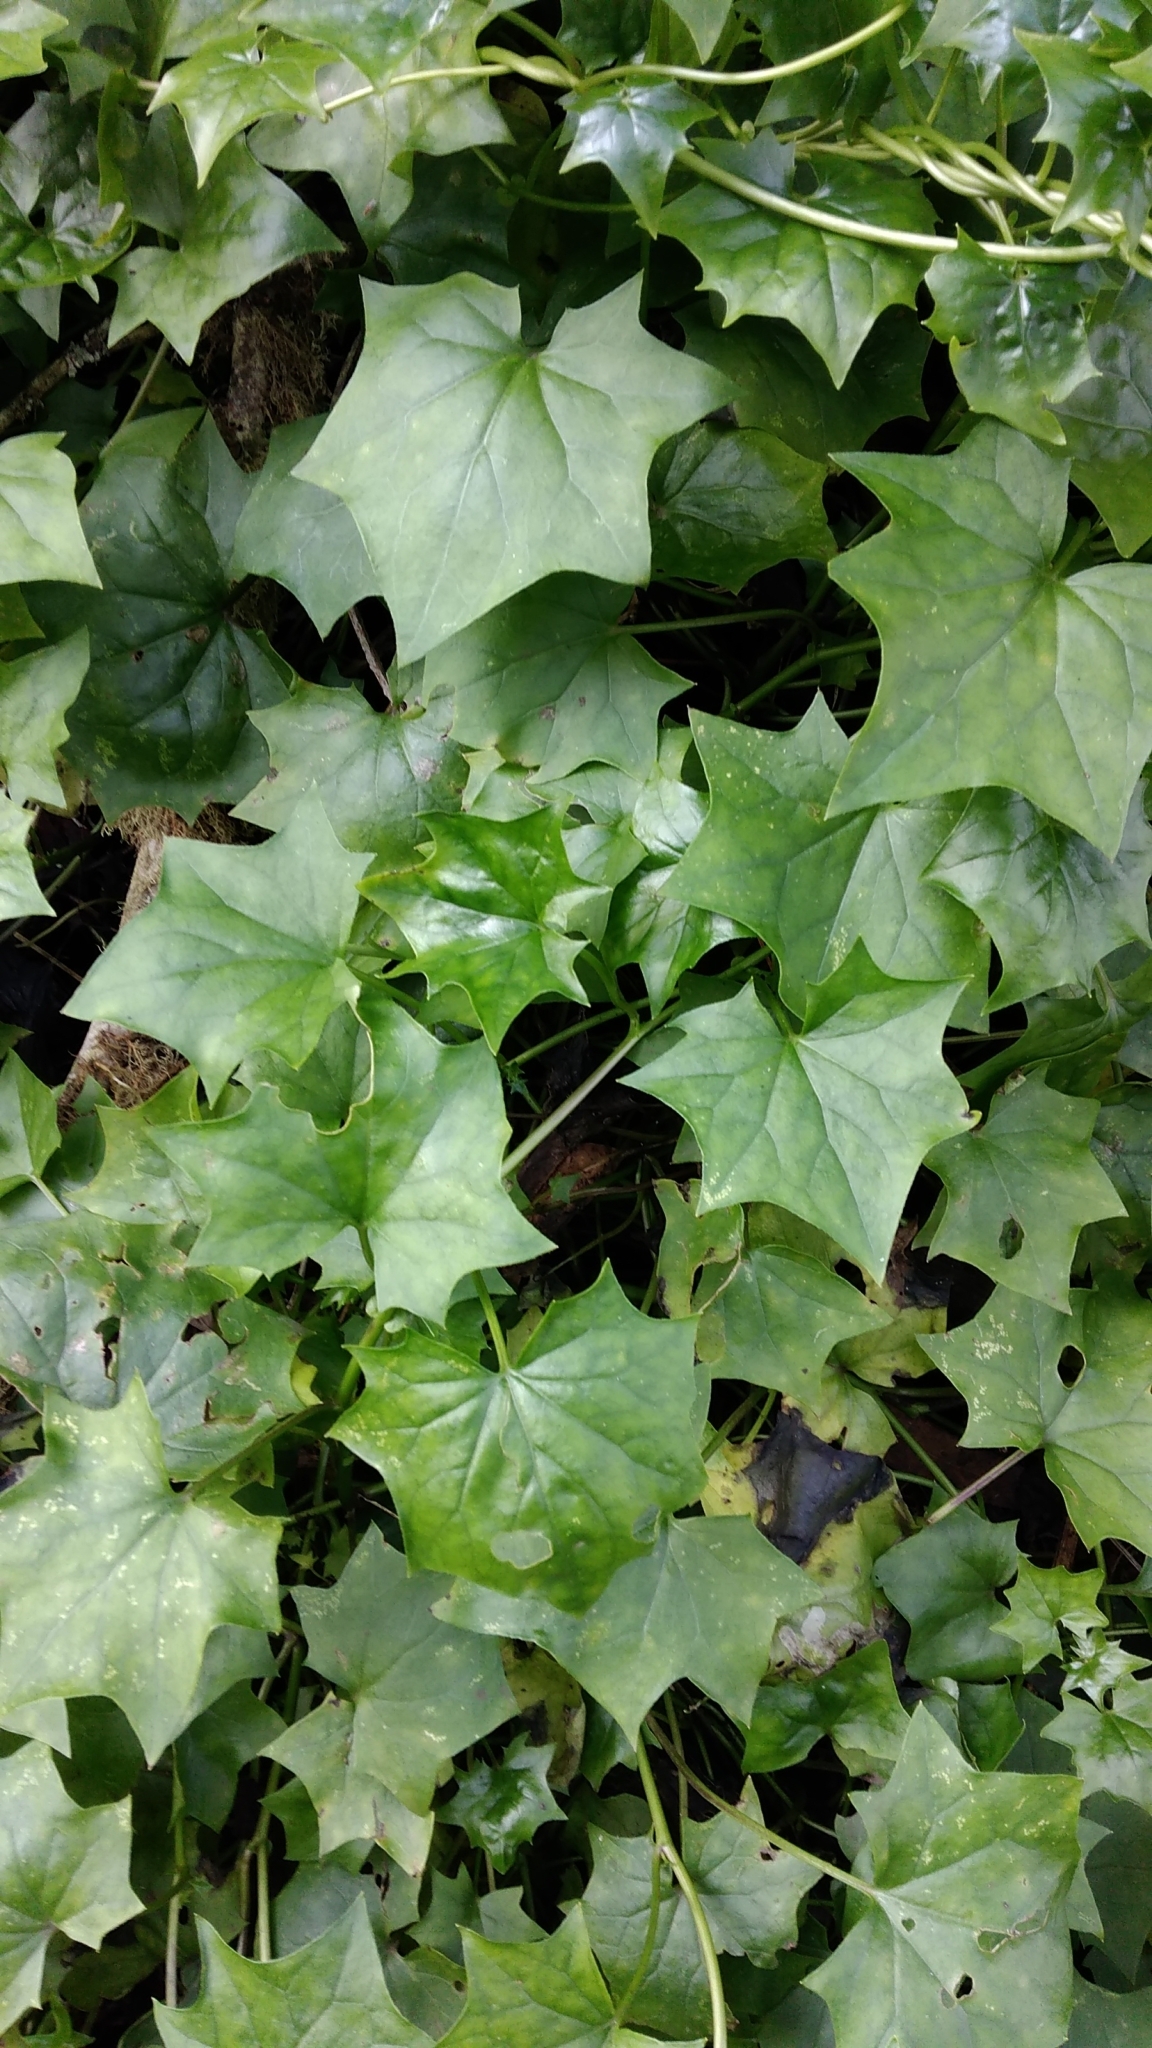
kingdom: Plantae
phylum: Tracheophyta
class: Magnoliopsida
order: Asterales
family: Asteraceae
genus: Delairea
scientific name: Delairea odorata
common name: Cape-ivy
